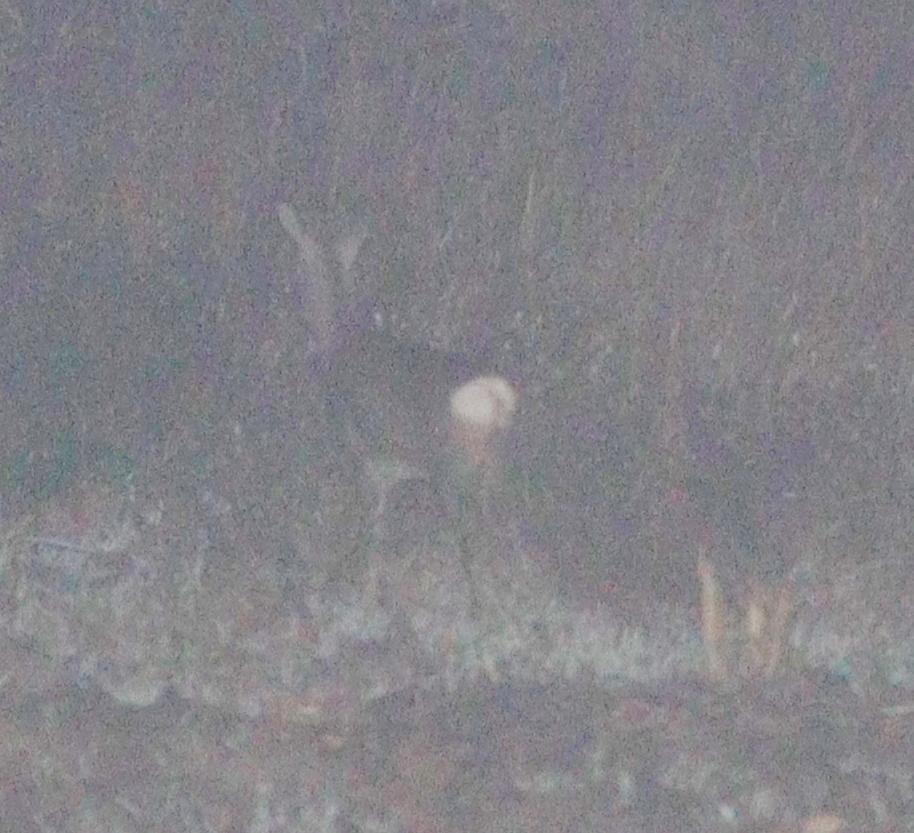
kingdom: Animalia
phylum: Chordata
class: Mammalia
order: Artiodactyla
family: Cervidae
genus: Capreolus
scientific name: Capreolus capreolus
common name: Western roe deer
